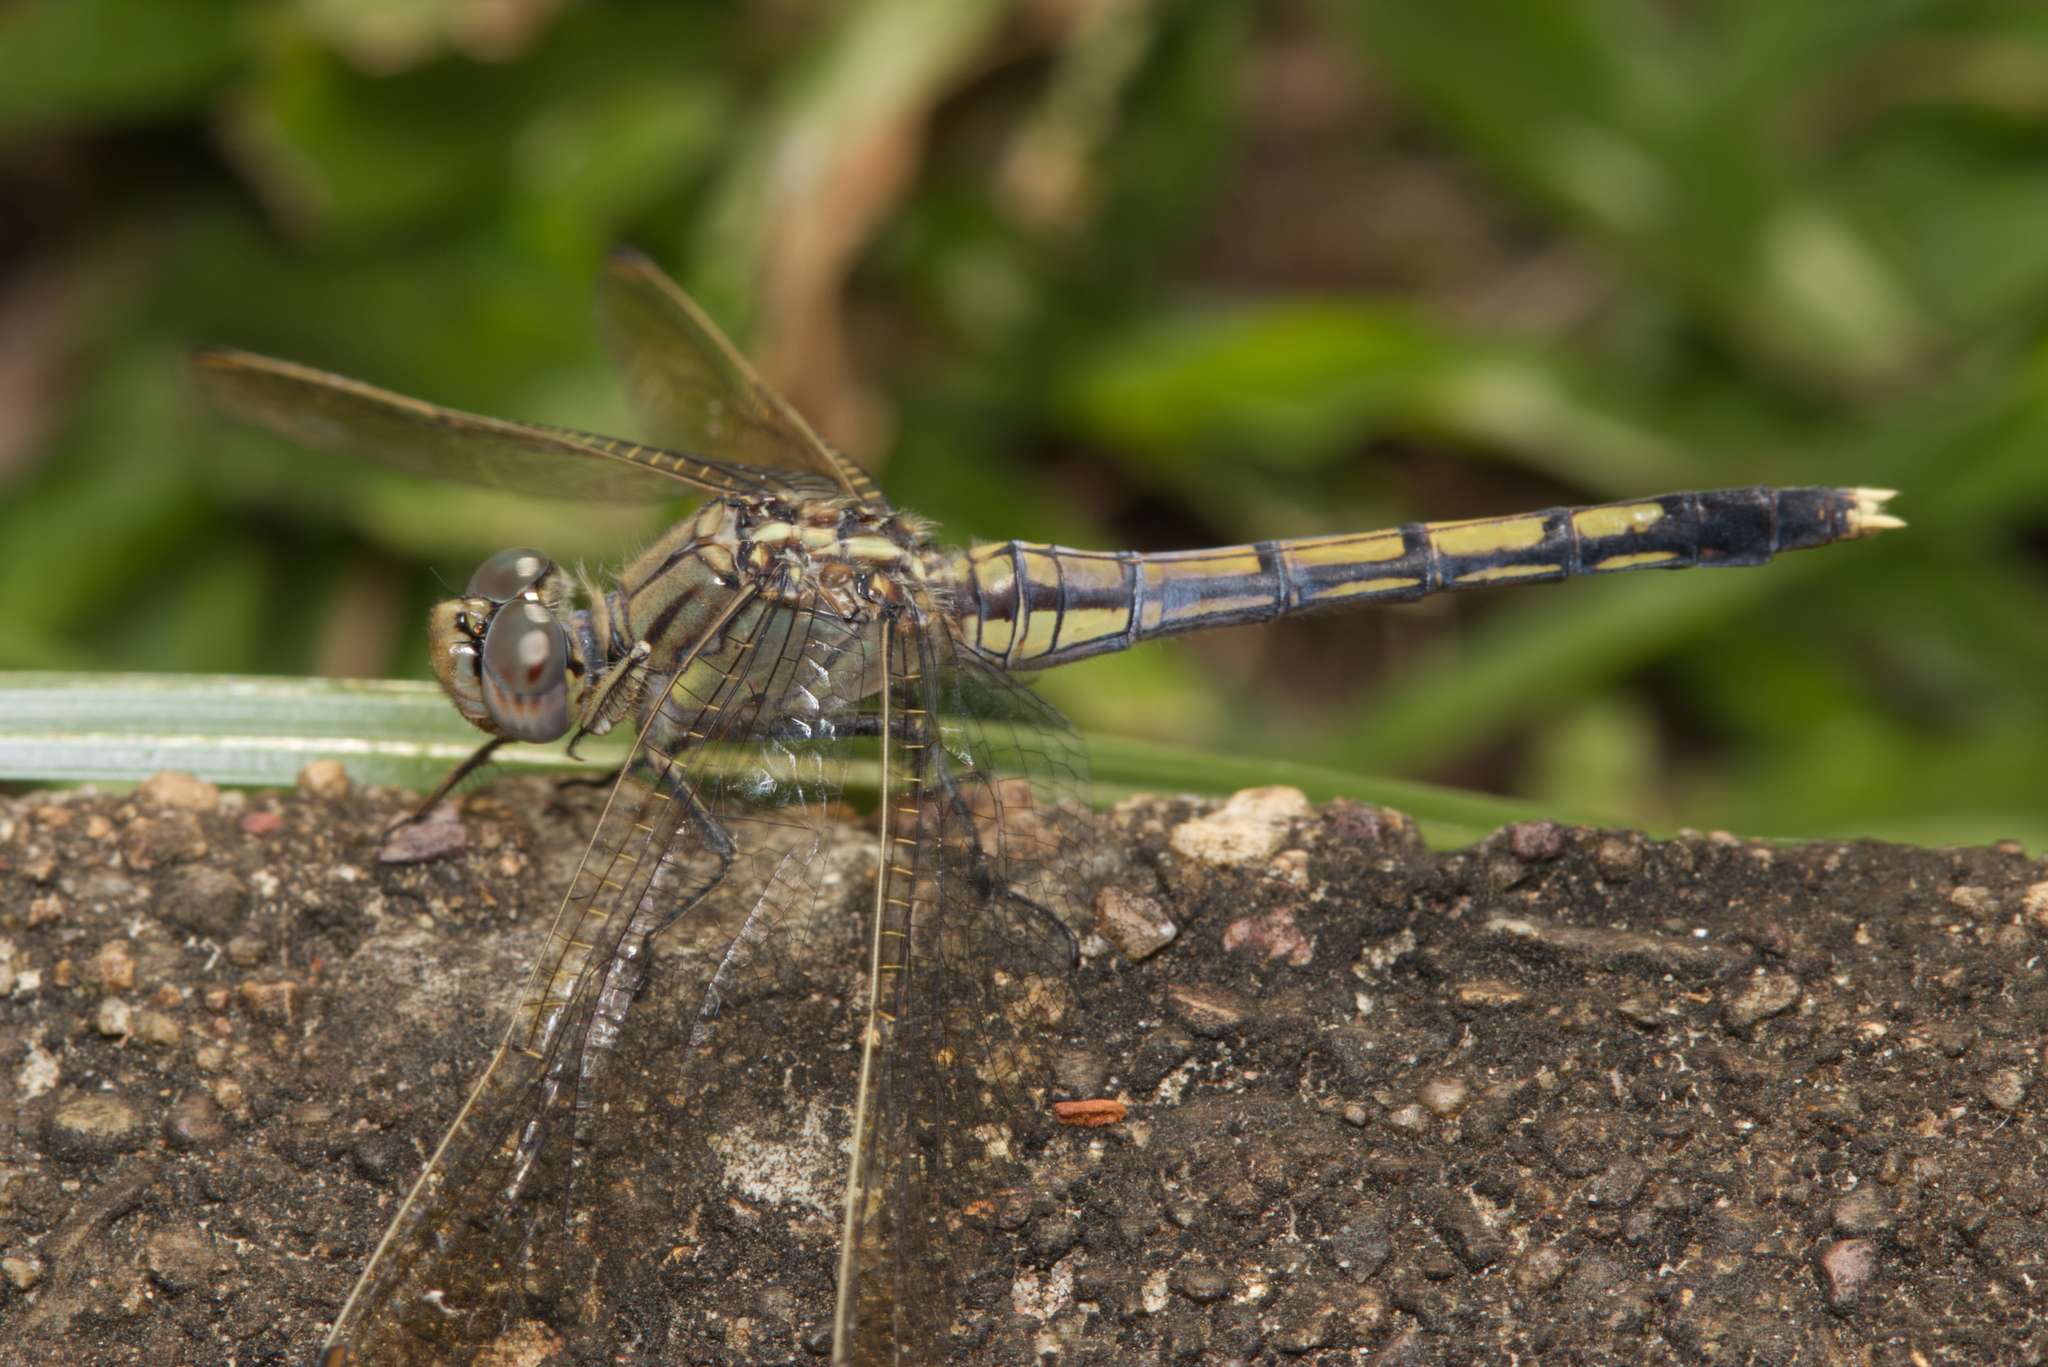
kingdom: Animalia
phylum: Arthropoda
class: Insecta
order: Odonata
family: Libellulidae
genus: Orthetrum
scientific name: Orthetrum caledonicum
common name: Blue skimmer
